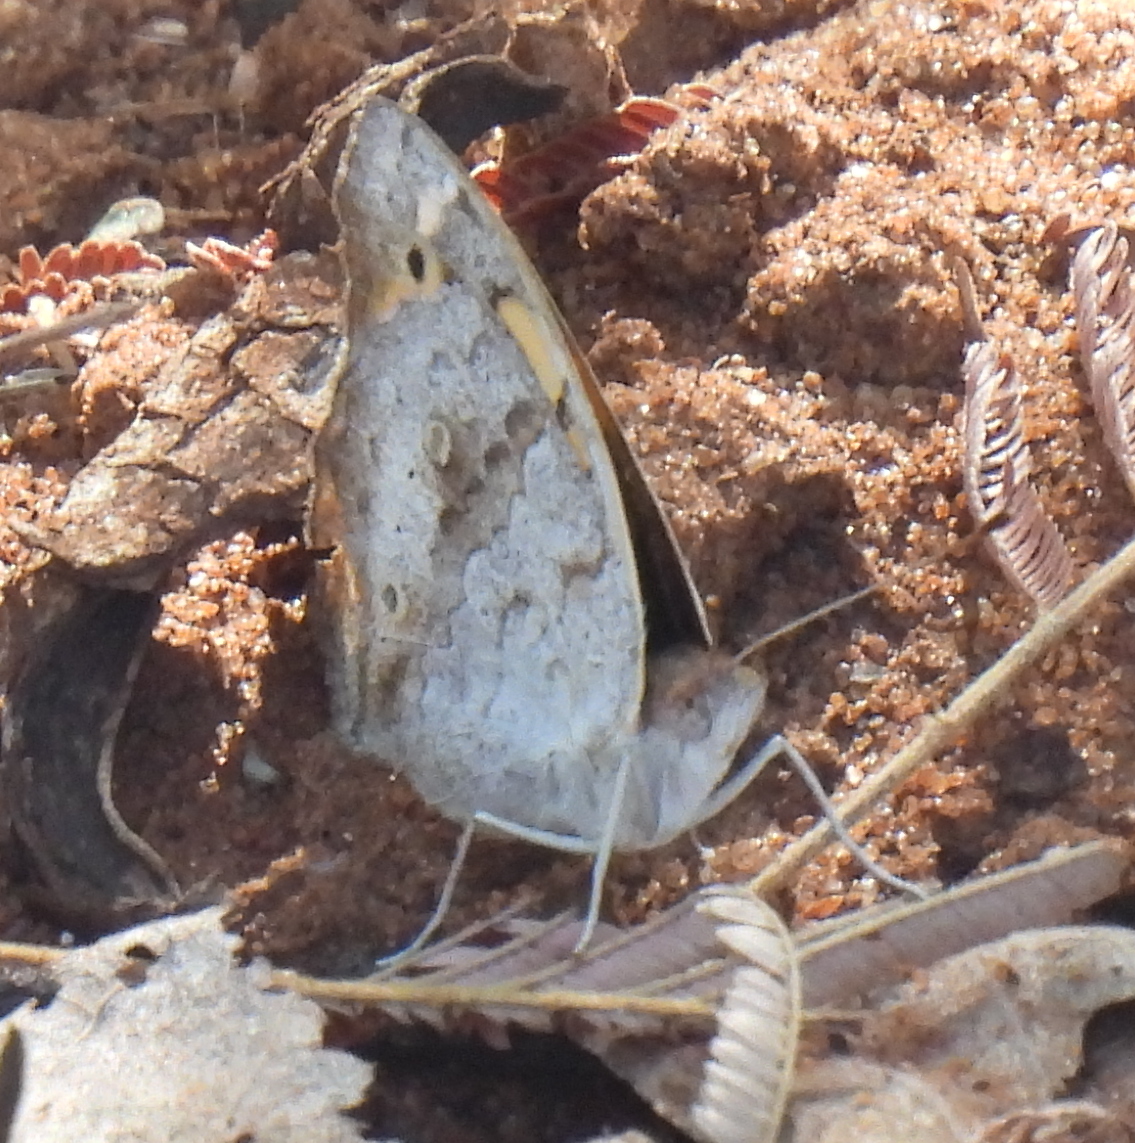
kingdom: Animalia
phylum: Arthropoda
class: Insecta
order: Lepidoptera
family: Nymphalidae
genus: Junonia
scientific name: Junonia hierta
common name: Yellow pansy
